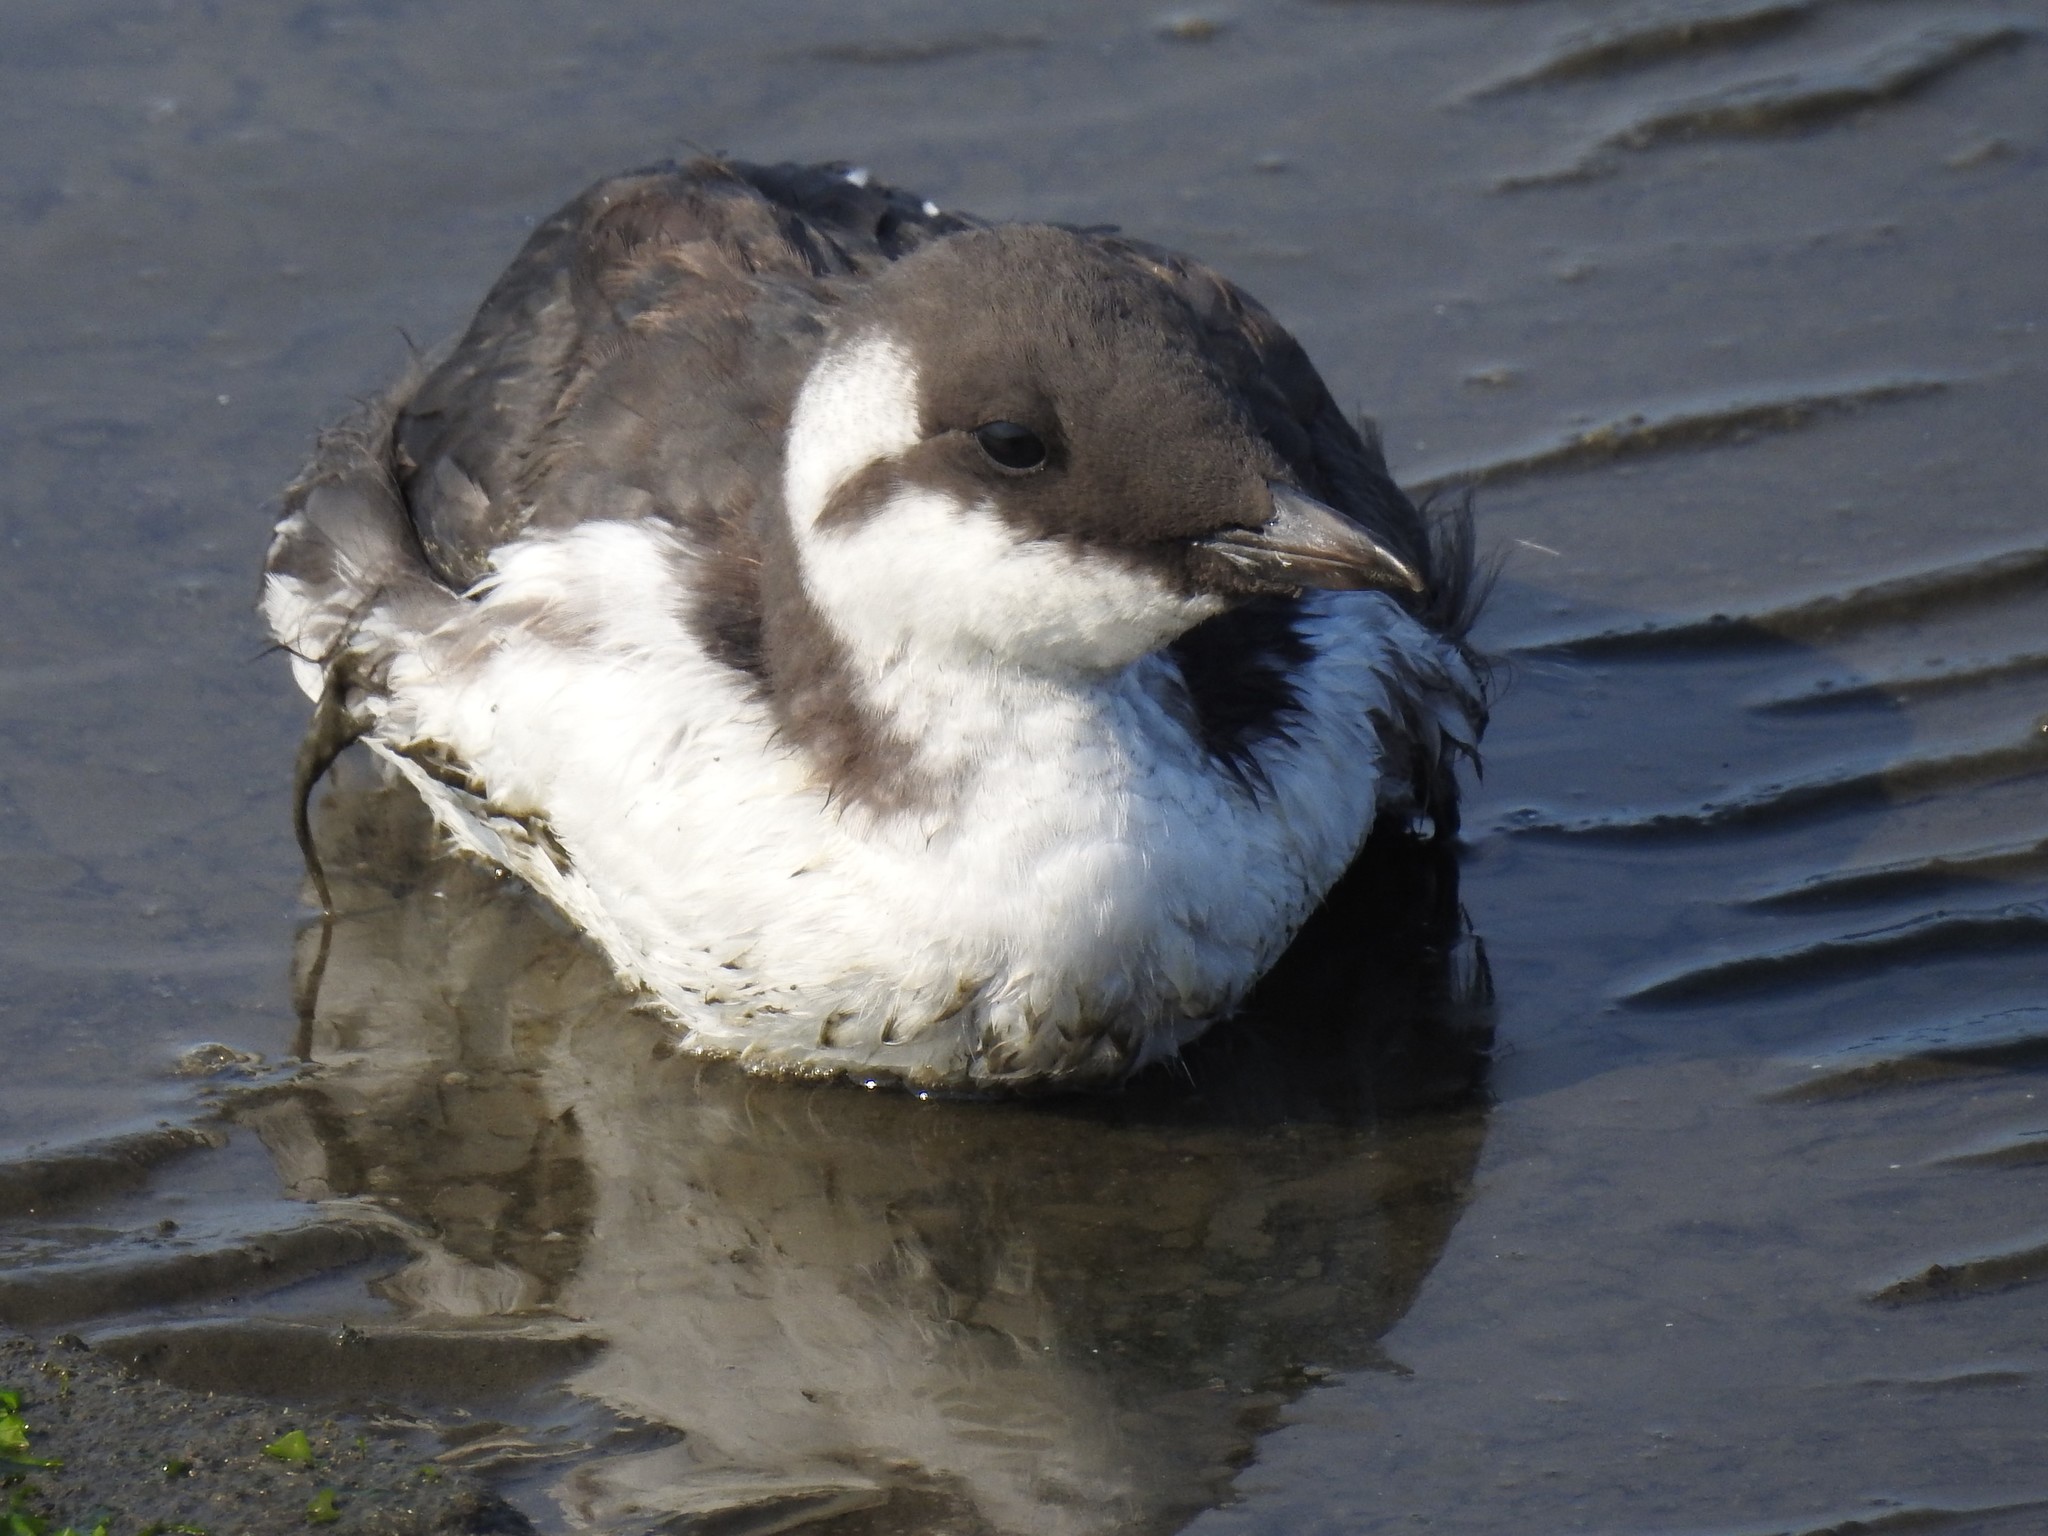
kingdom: Animalia
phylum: Chordata
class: Aves
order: Charadriiformes
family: Alcidae
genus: Uria
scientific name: Uria aalge
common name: Common murre
